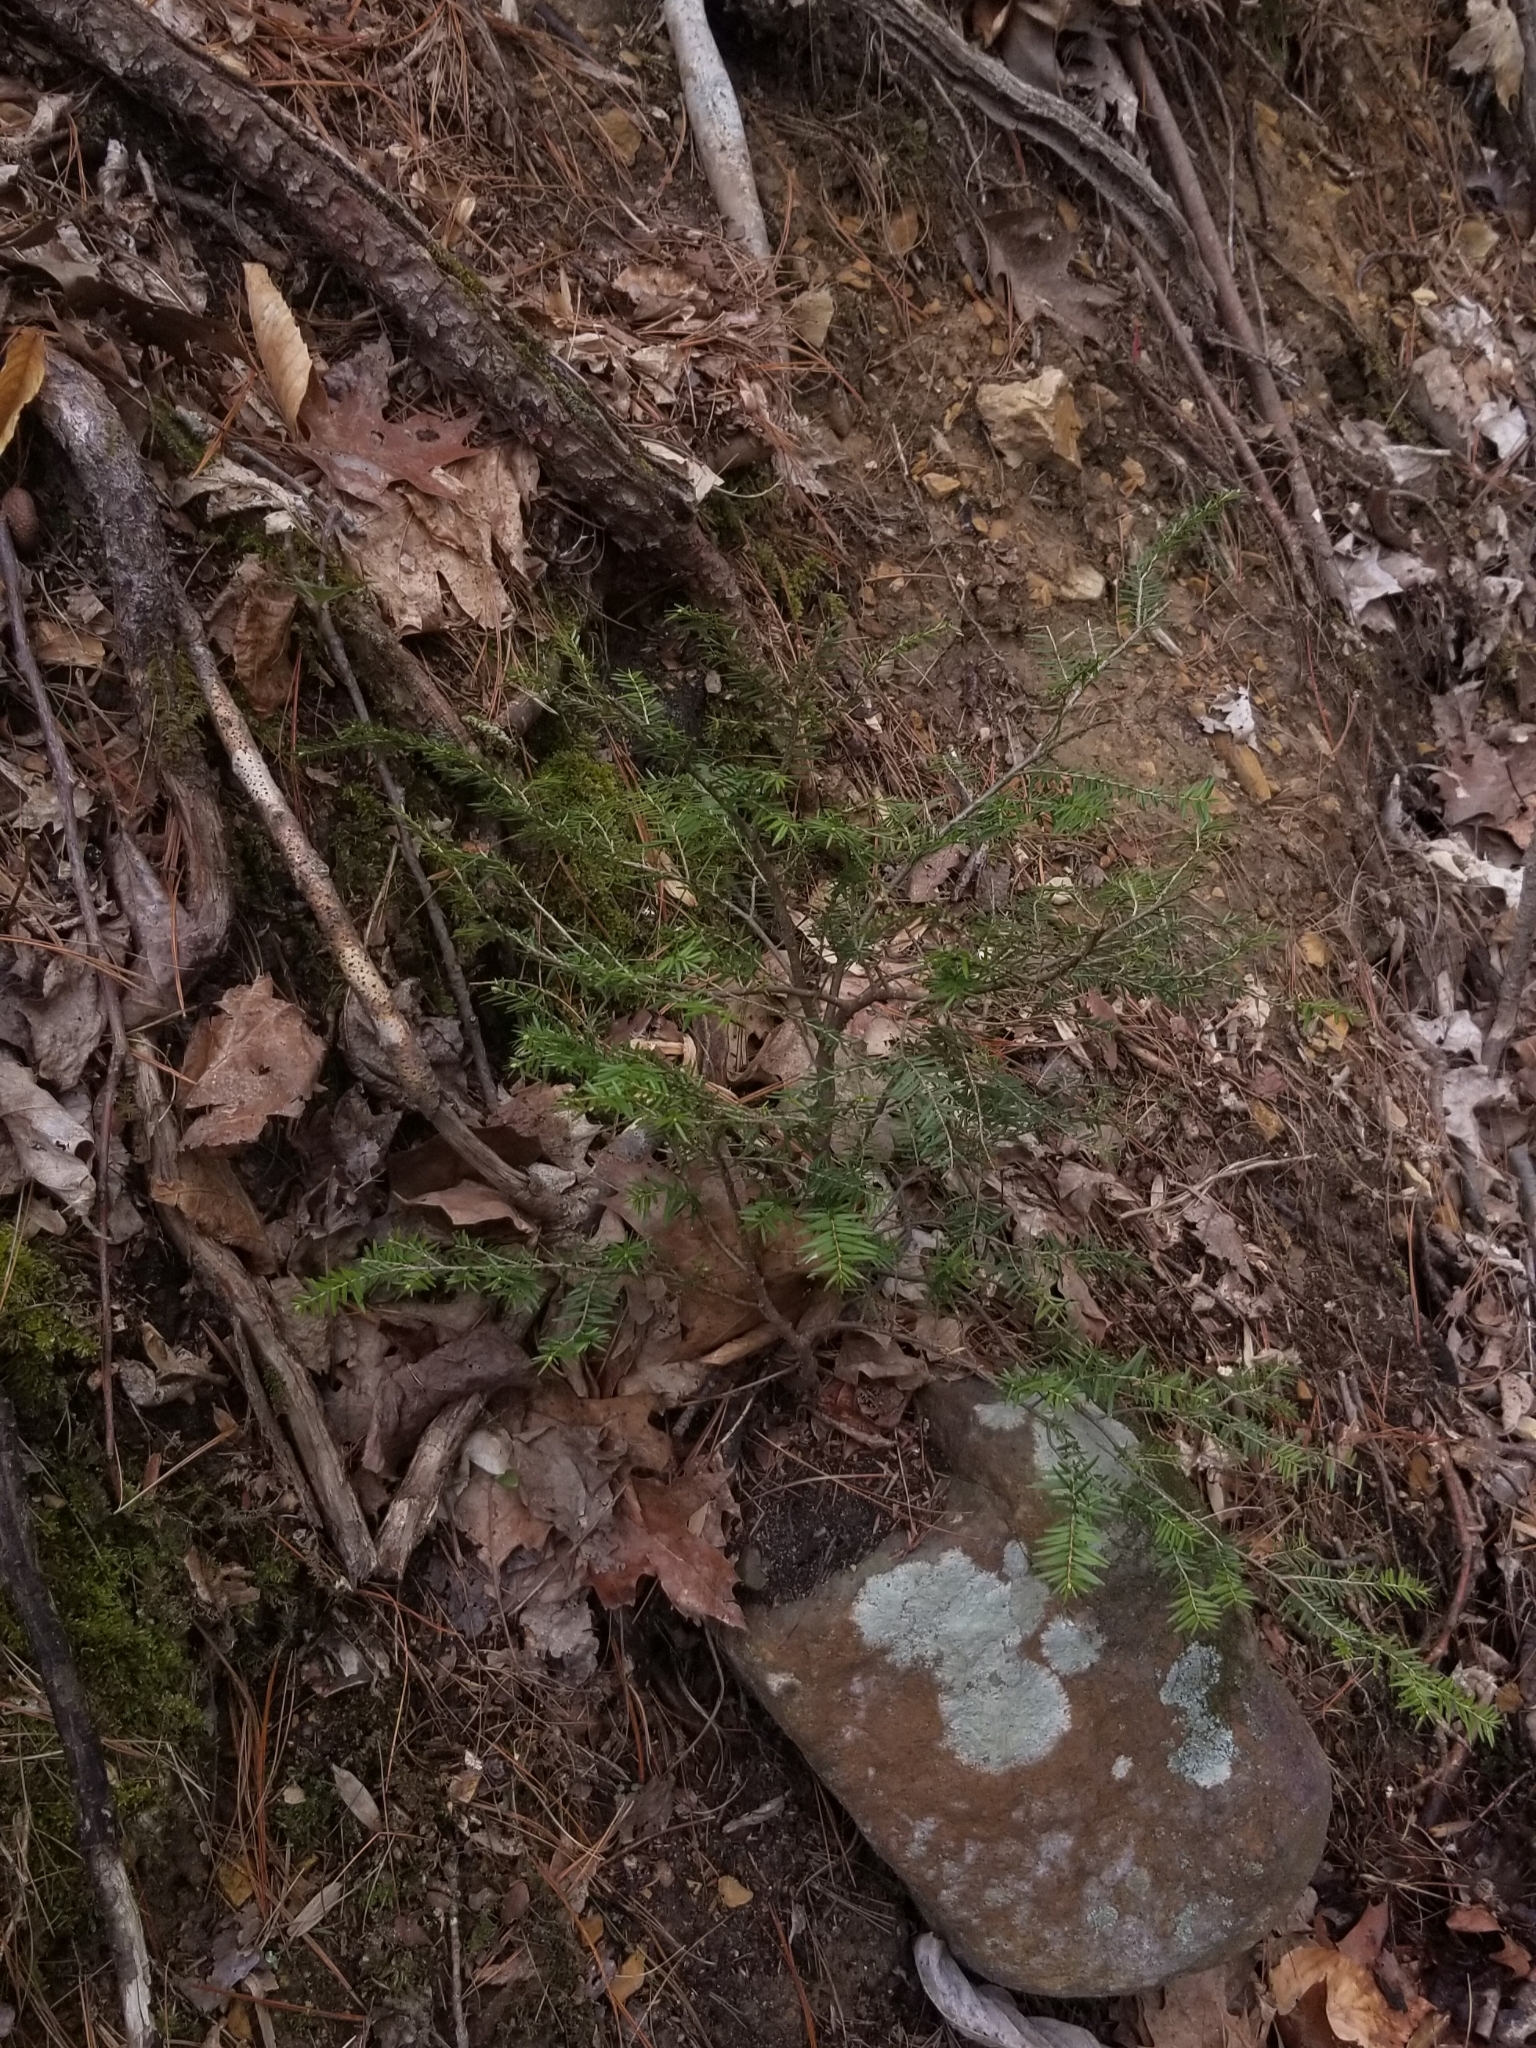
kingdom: Plantae
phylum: Tracheophyta
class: Pinopsida
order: Pinales
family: Pinaceae
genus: Tsuga
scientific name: Tsuga canadensis
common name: Eastern hemlock
